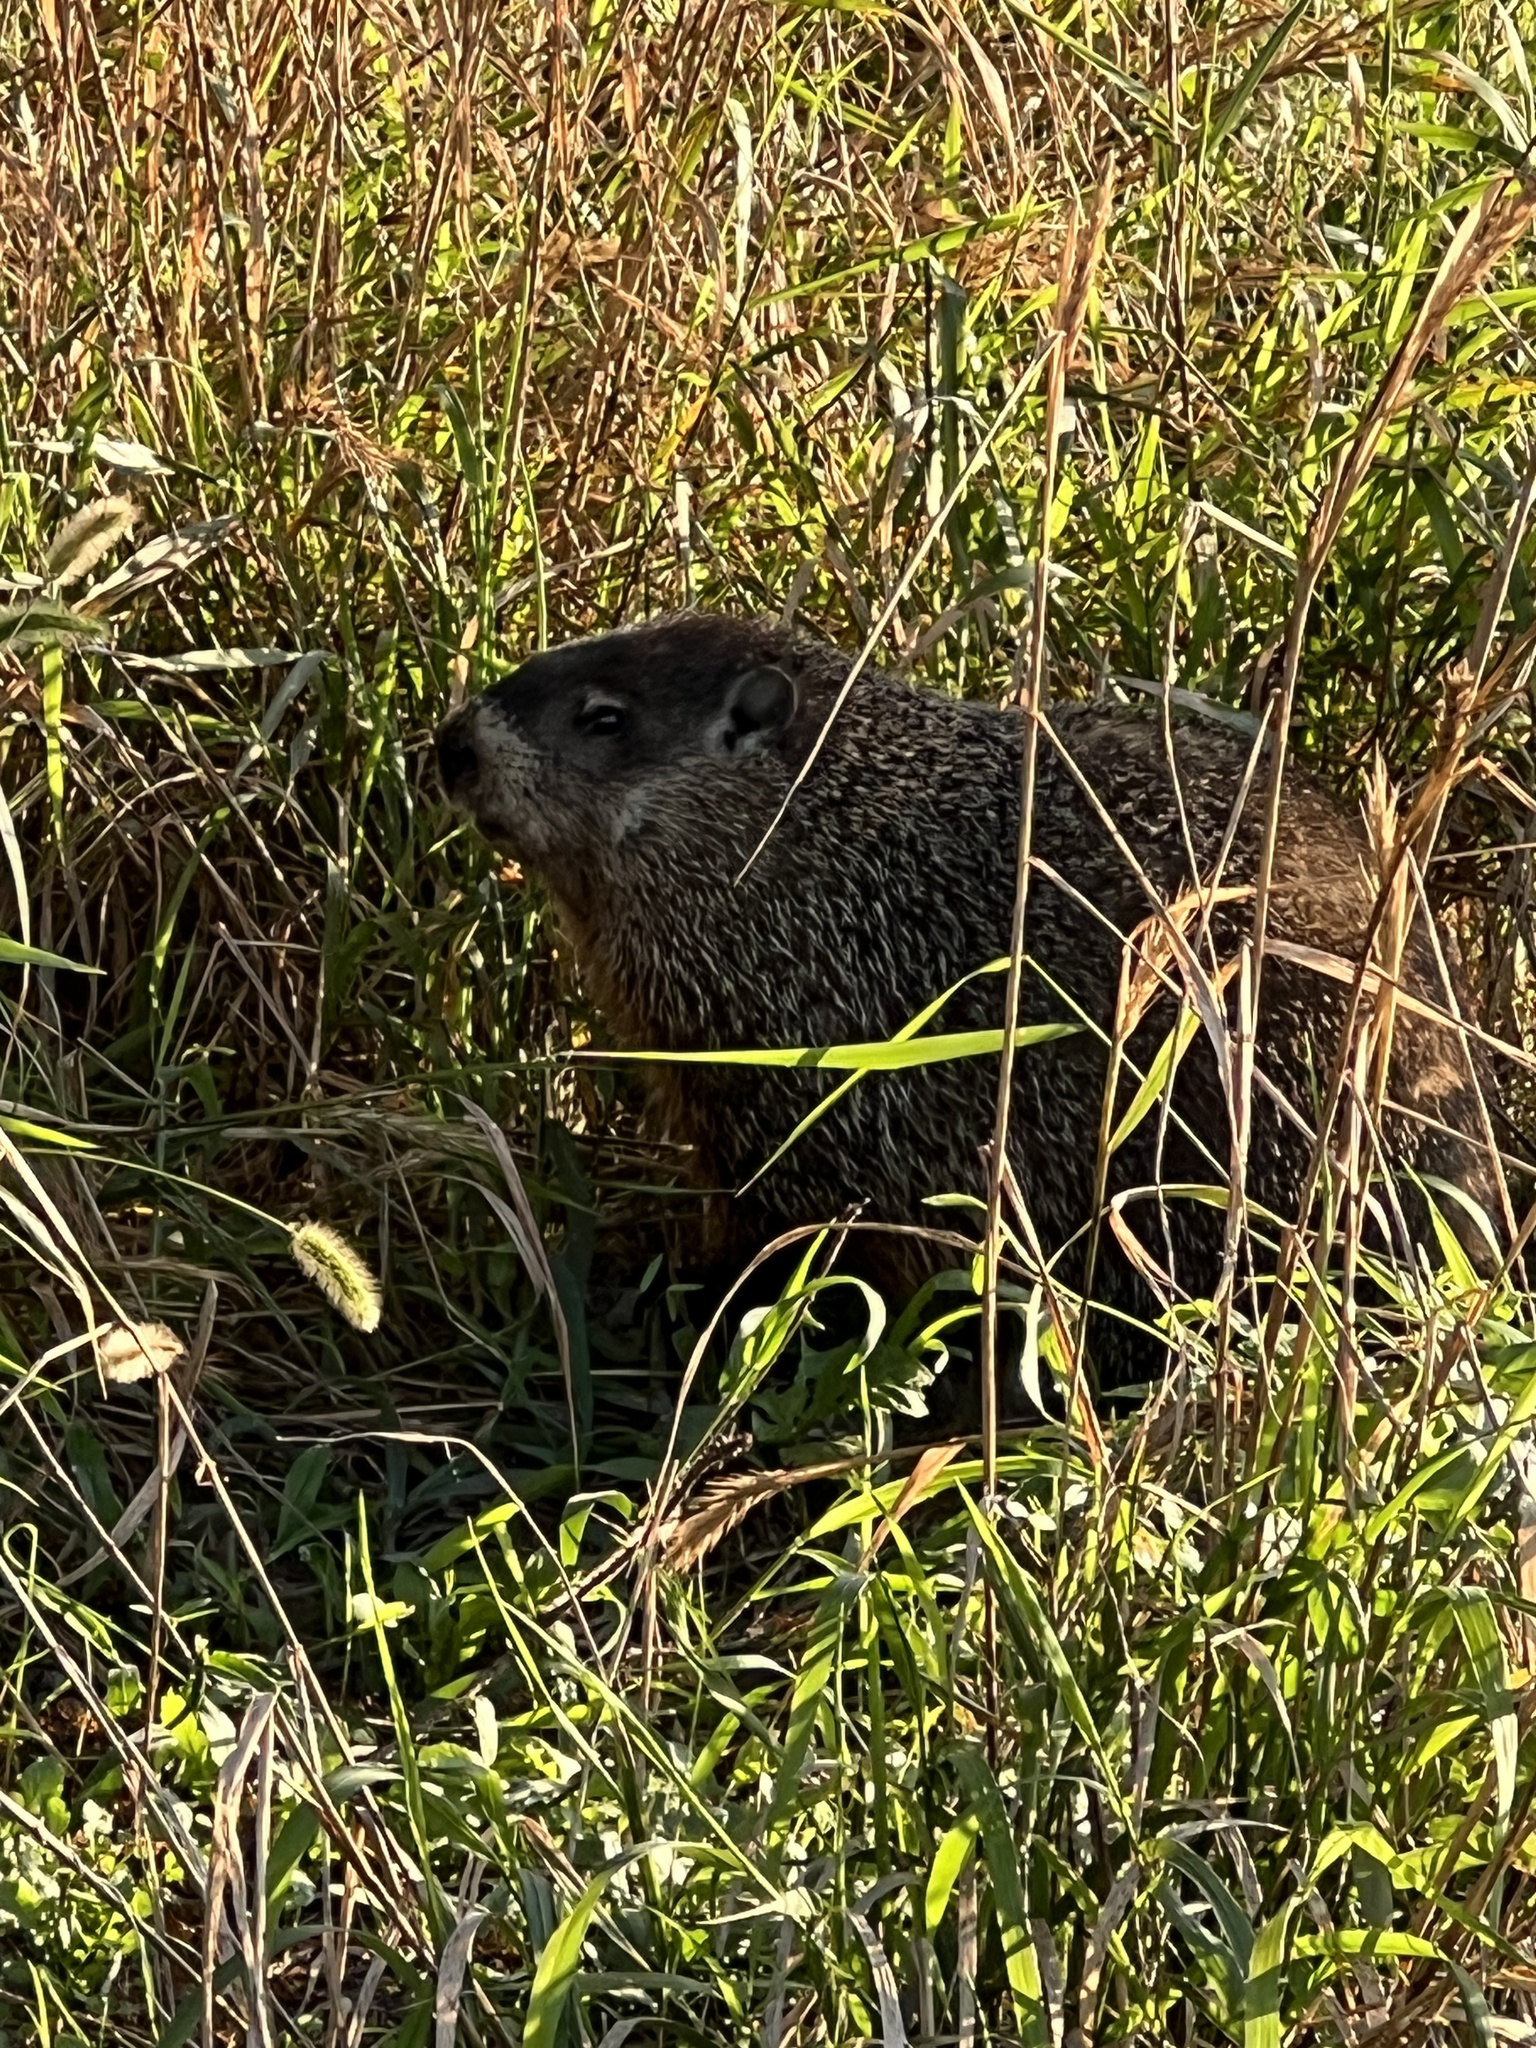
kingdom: Animalia
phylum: Chordata
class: Mammalia
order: Rodentia
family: Sciuridae
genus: Marmota
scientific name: Marmota monax
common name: Groundhog
